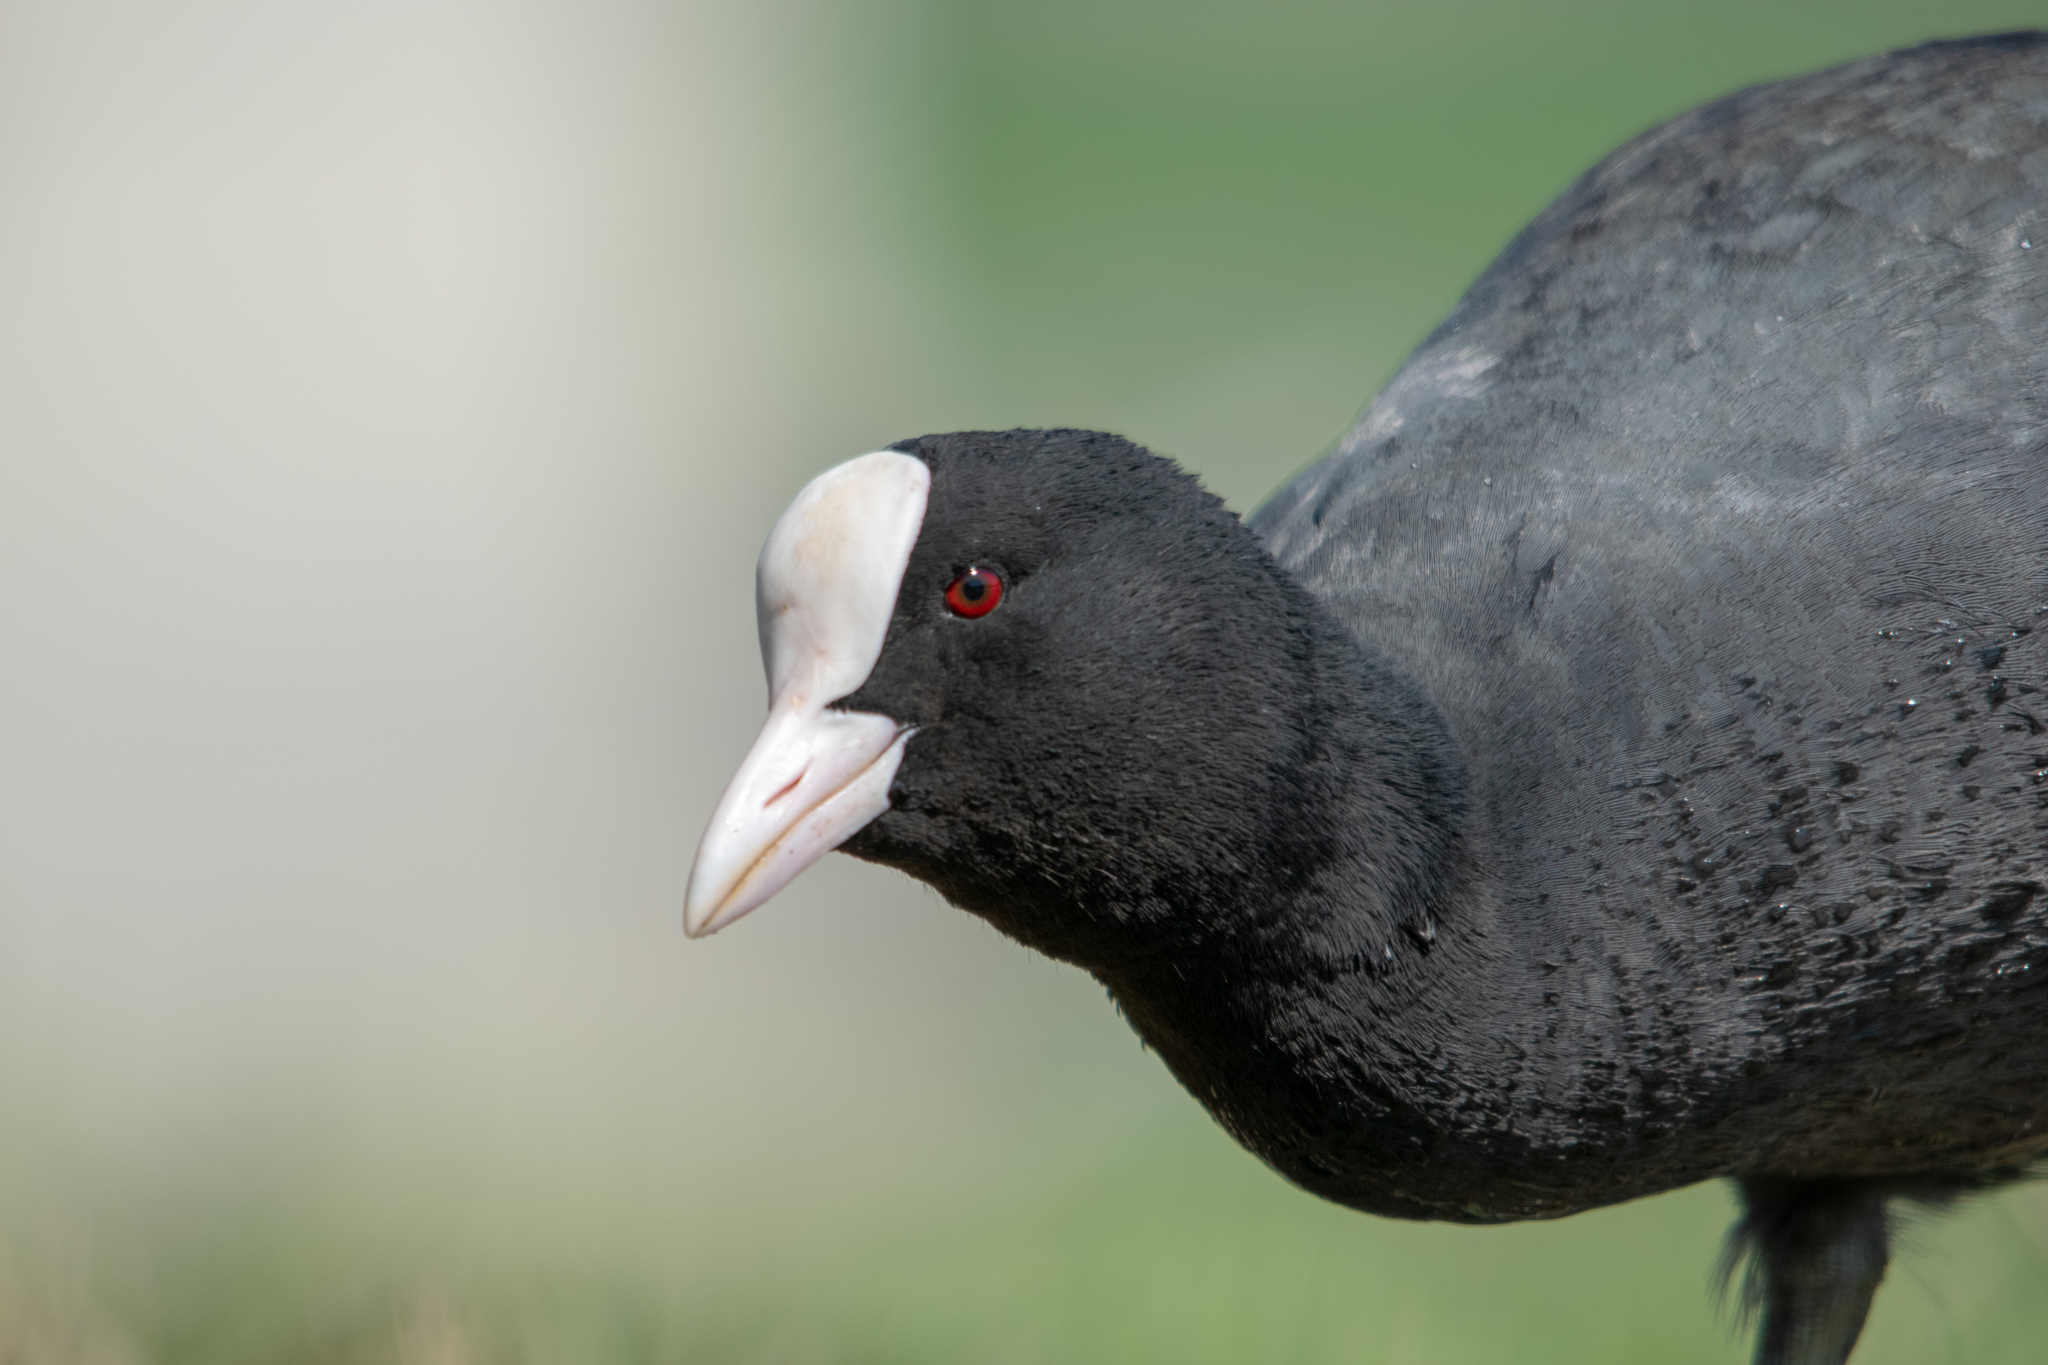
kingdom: Animalia
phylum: Chordata
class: Aves
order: Gruiformes
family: Rallidae
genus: Fulica
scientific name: Fulica atra
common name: Eurasian coot
